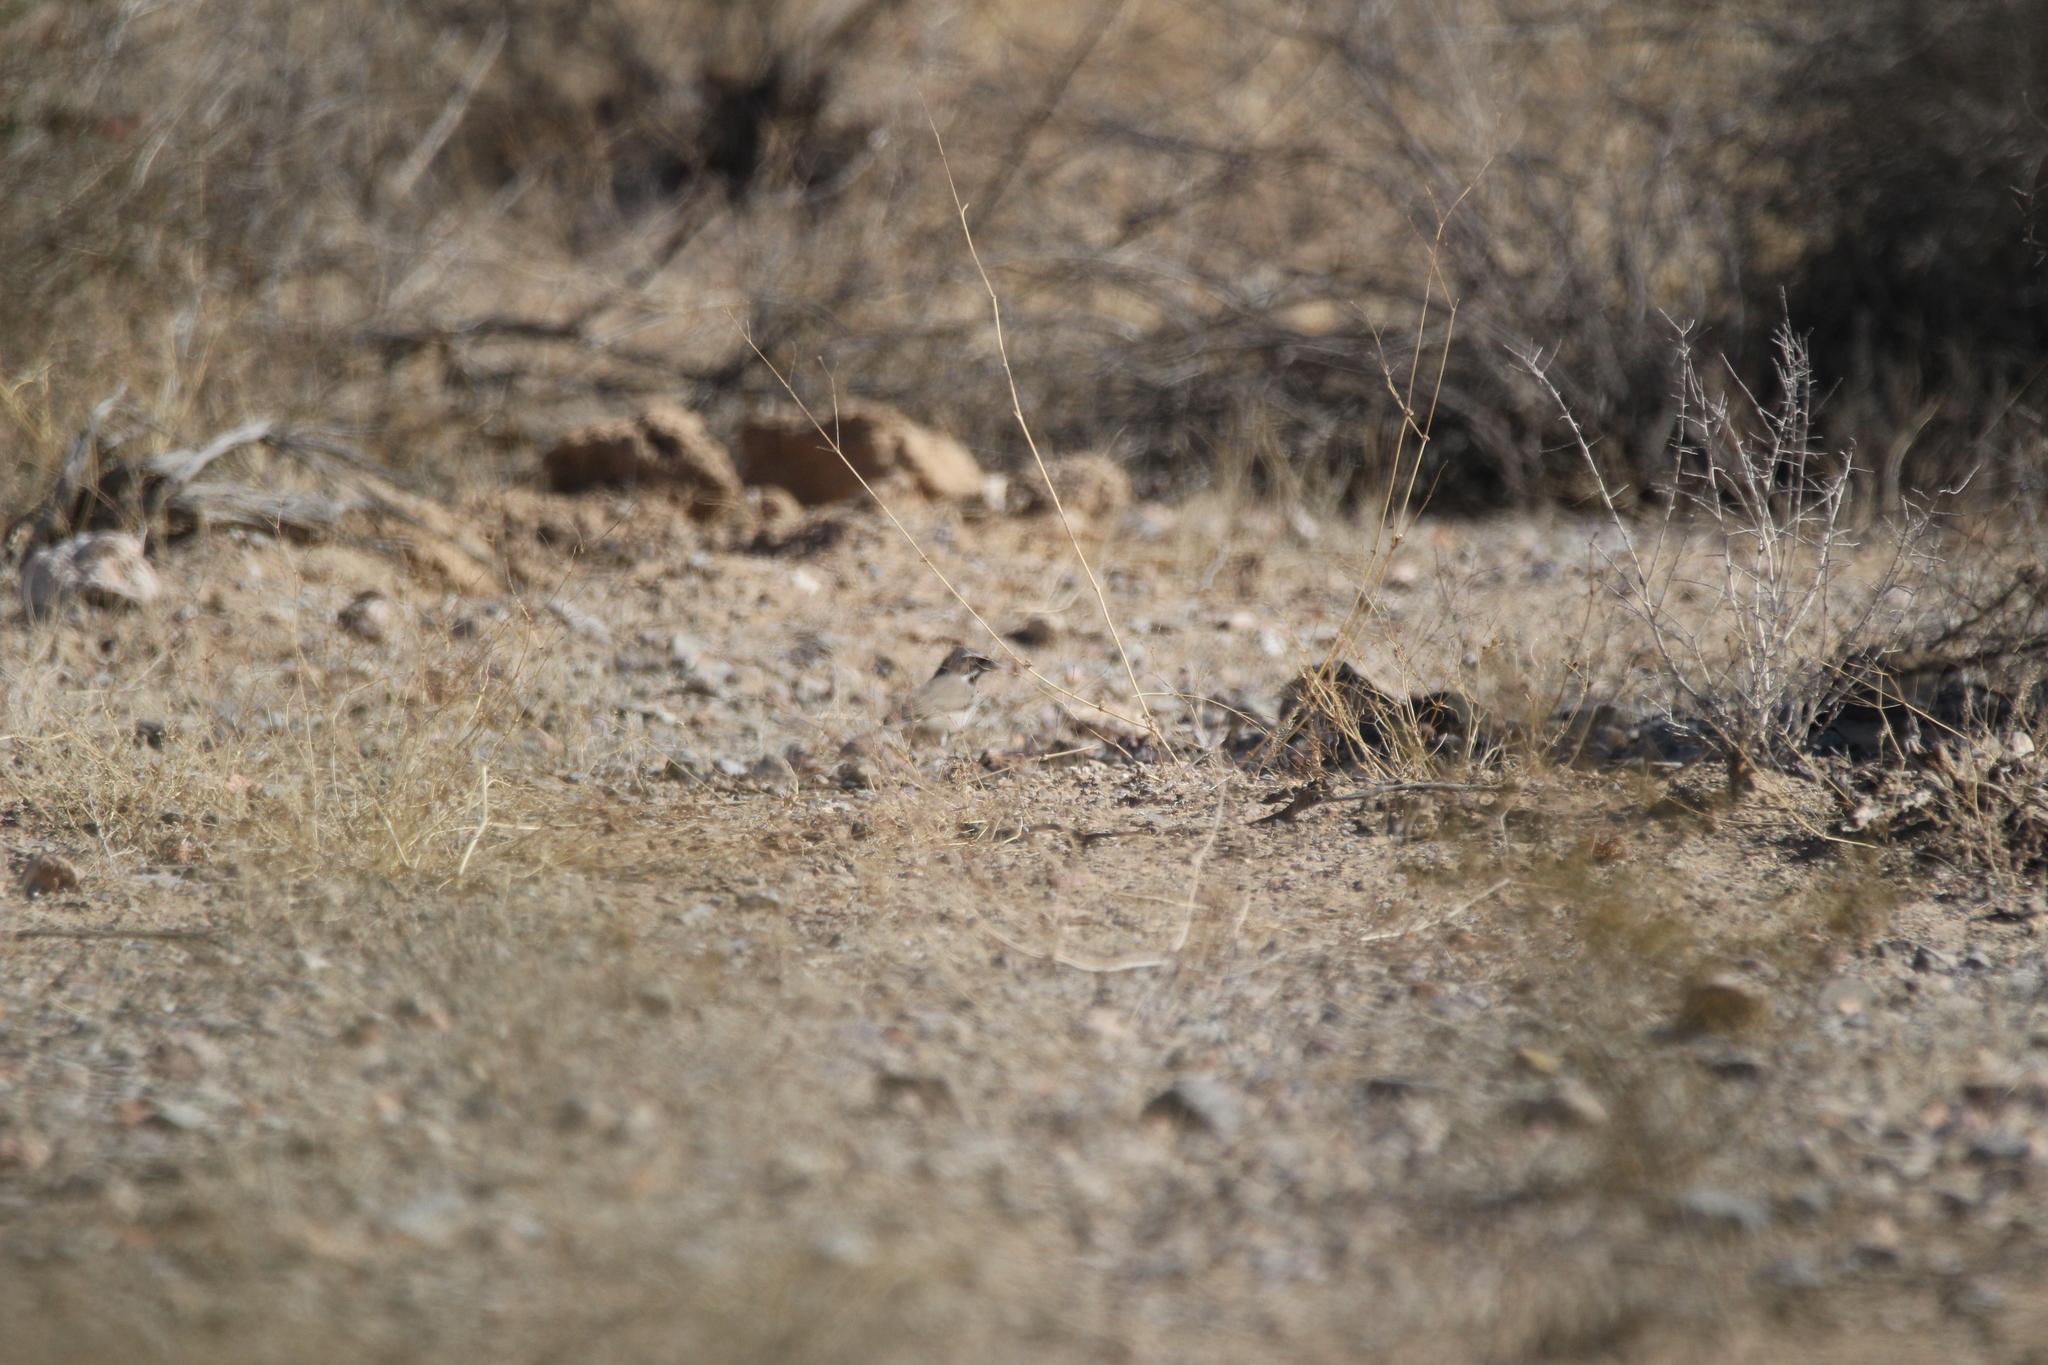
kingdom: Animalia
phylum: Chordata
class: Aves
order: Passeriformes
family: Passerellidae
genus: Amphispiza
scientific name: Amphispiza bilineata
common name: Black-throated sparrow
